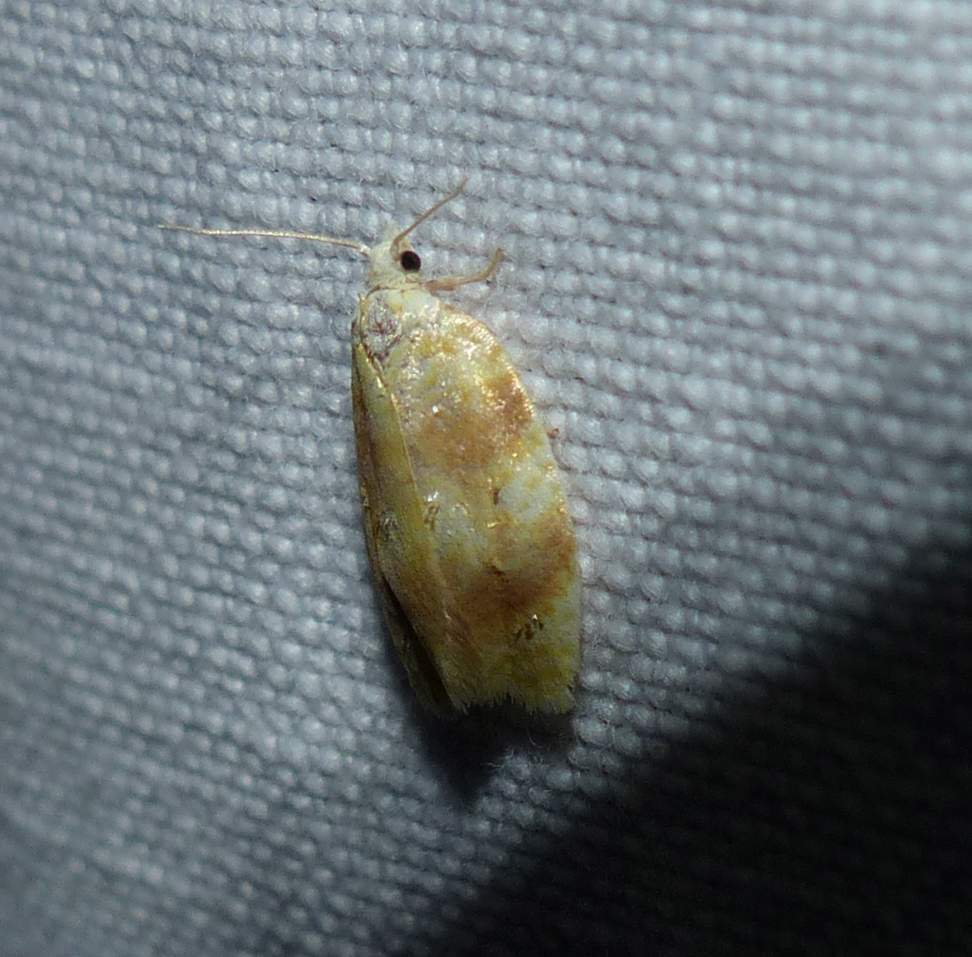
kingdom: Animalia
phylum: Arthropoda
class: Insecta
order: Lepidoptera
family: Tortricidae
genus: Acleris
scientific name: Acleris semipurpurana
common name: Oak leaftier moth
